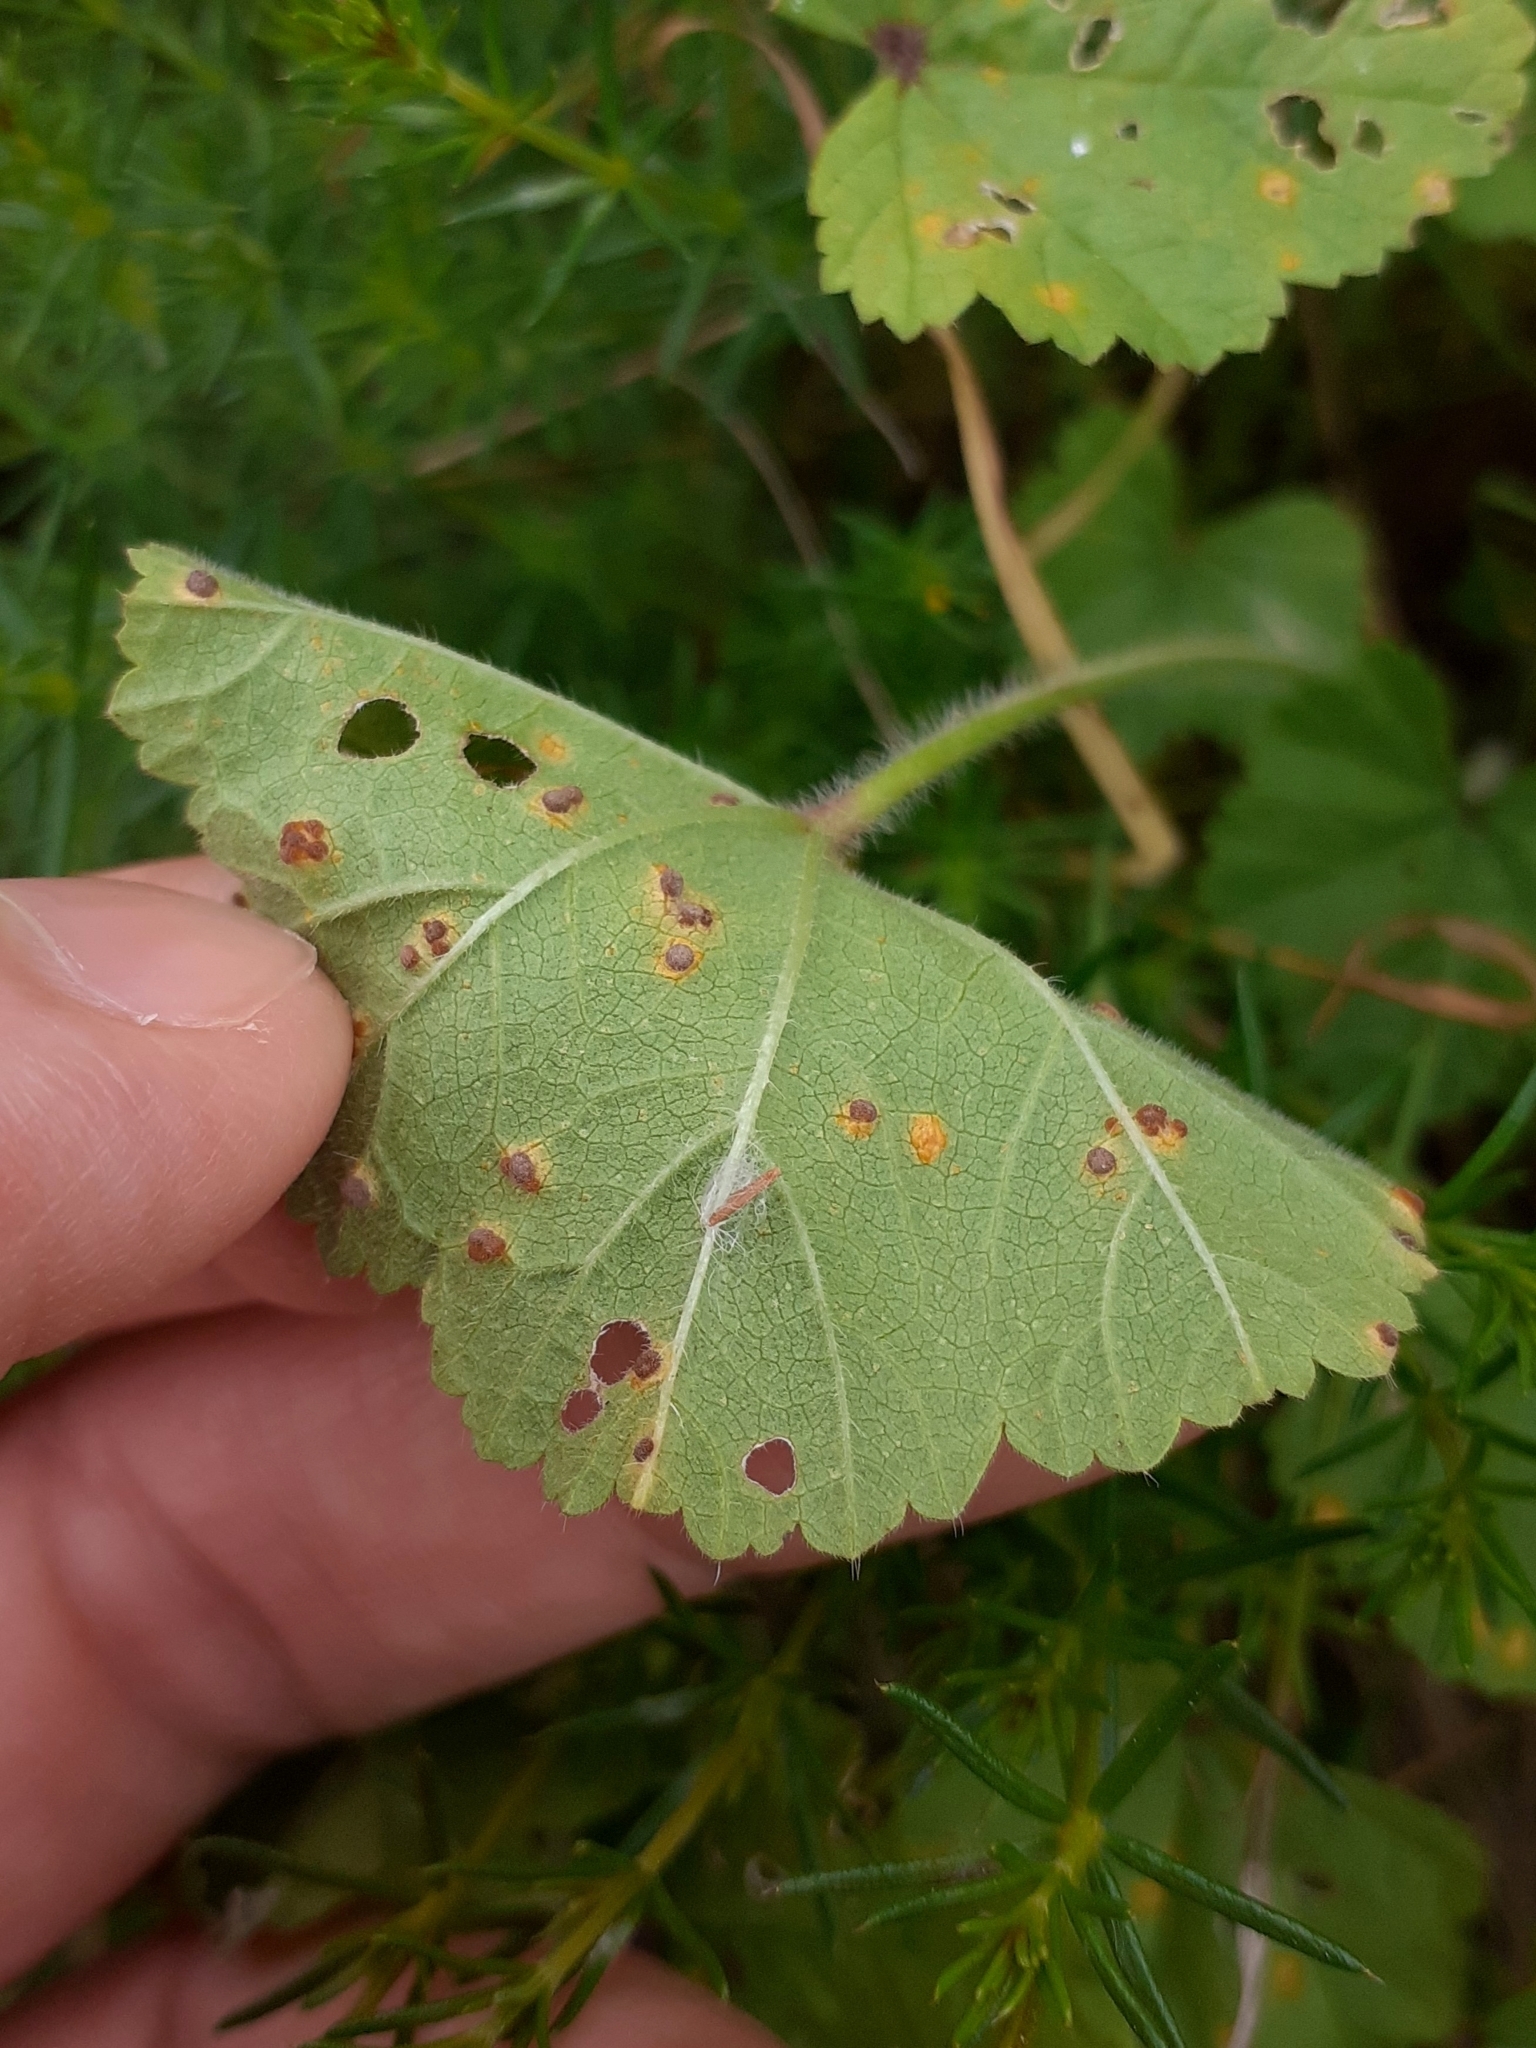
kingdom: Fungi
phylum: Basidiomycota
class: Pucciniomycetes
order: Pucciniales
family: Pucciniaceae
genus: Puccinia
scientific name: Puccinia malvacearum
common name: Hollyhock rust
